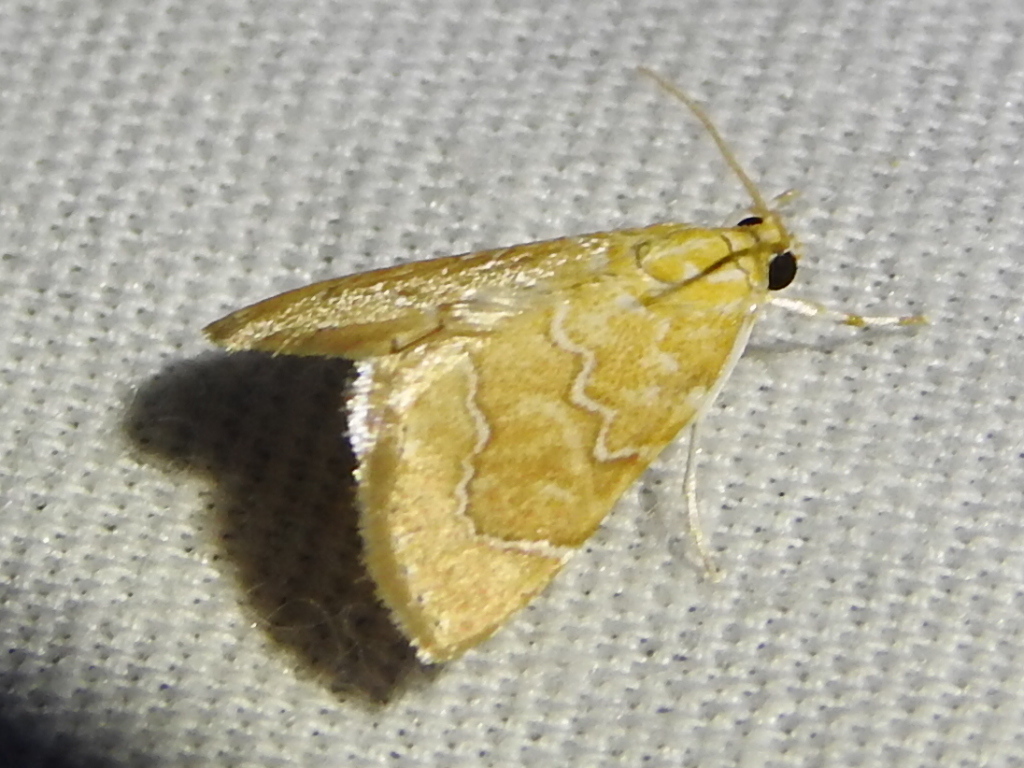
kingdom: Animalia
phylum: Arthropoda
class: Insecta
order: Lepidoptera
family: Crambidae
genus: Glaphyria
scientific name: Glaphyria sesquistrialis
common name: White-roped glaphyria
